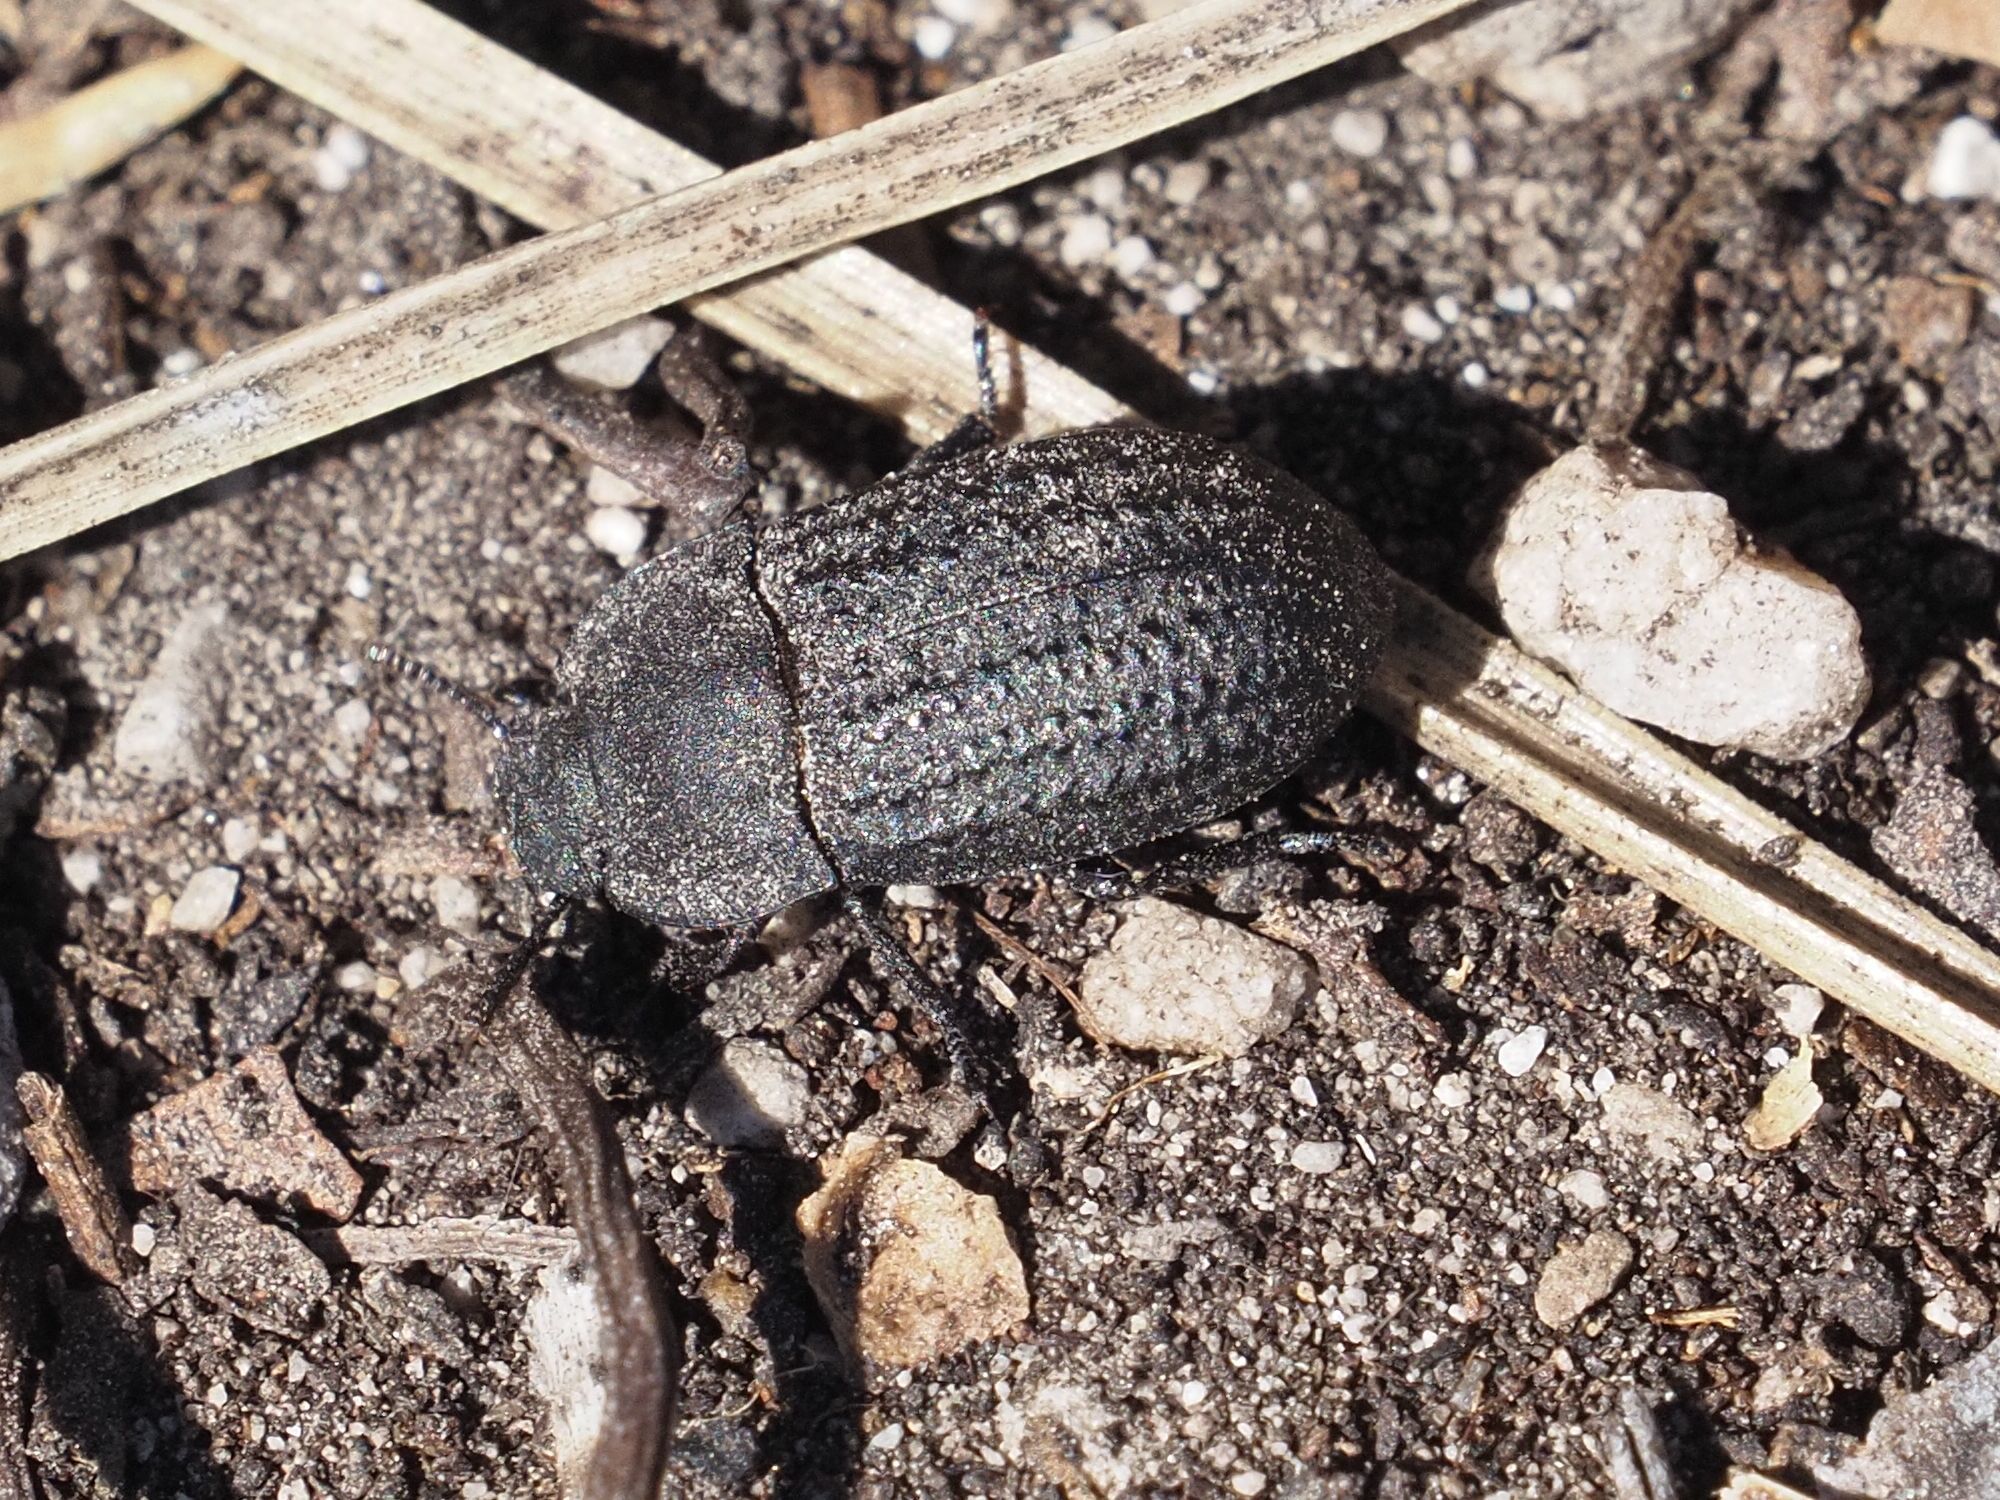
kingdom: Animalia
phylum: Arthropoda
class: Insecta
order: Coleoptera
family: Tenebrionidae
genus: Opatrum
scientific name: Opatrum sabulosum
